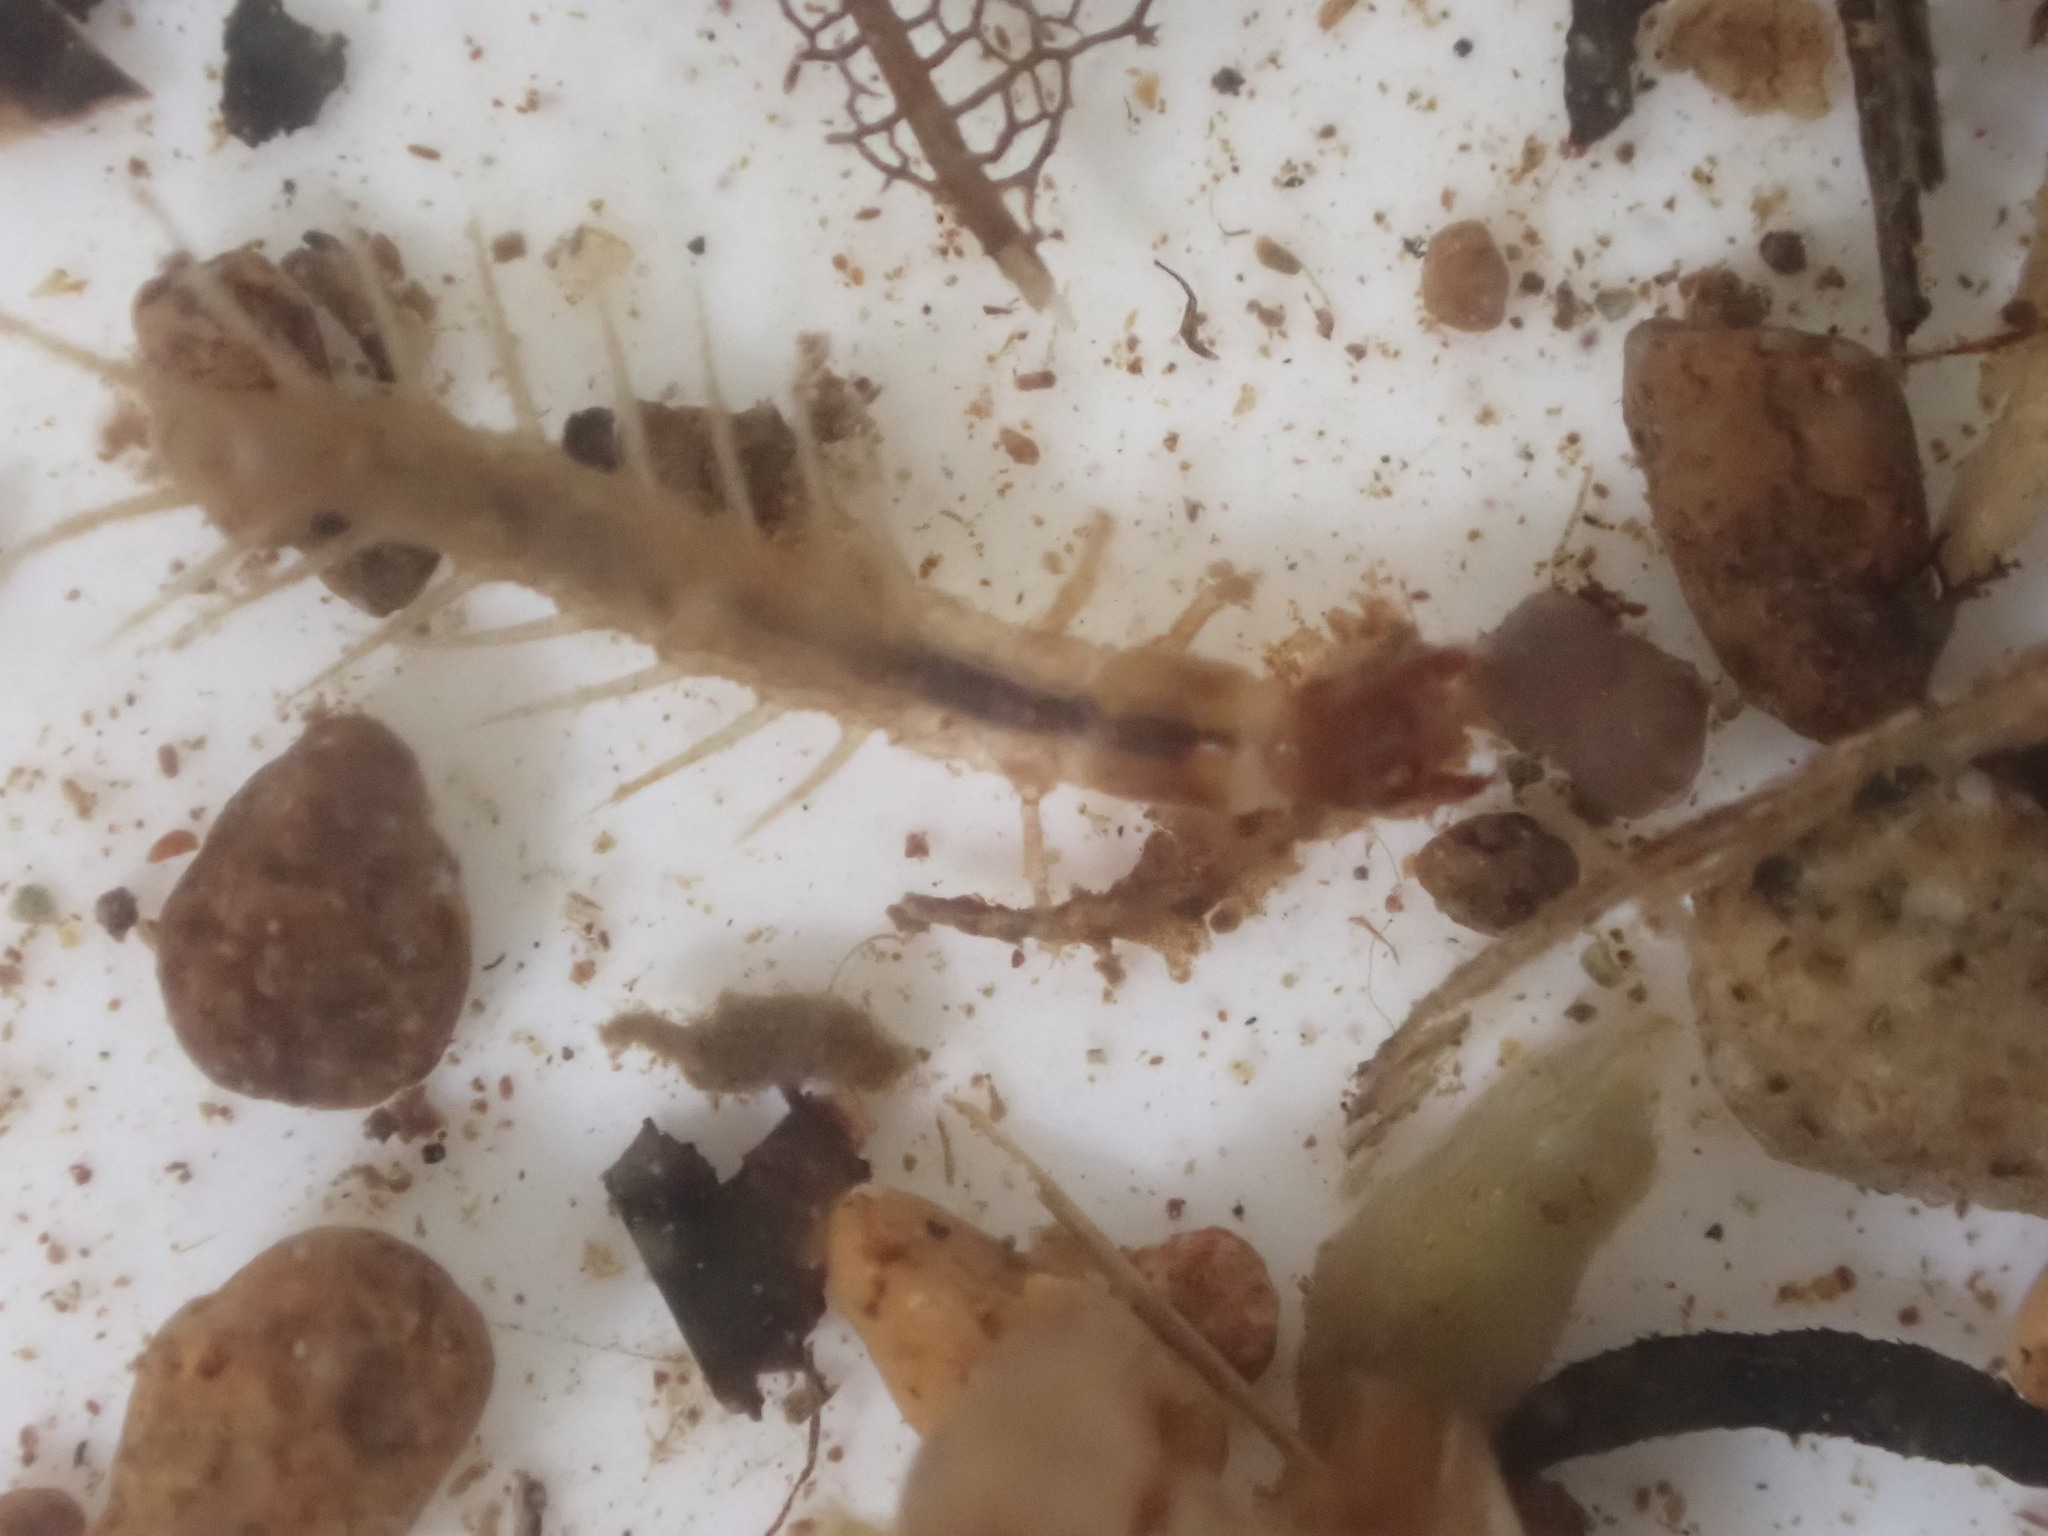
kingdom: Animalia
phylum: Arthropoda
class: Insecta
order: Megaloptera
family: Corydalidae
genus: Archichauliodes
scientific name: Archichauliodes diversus
